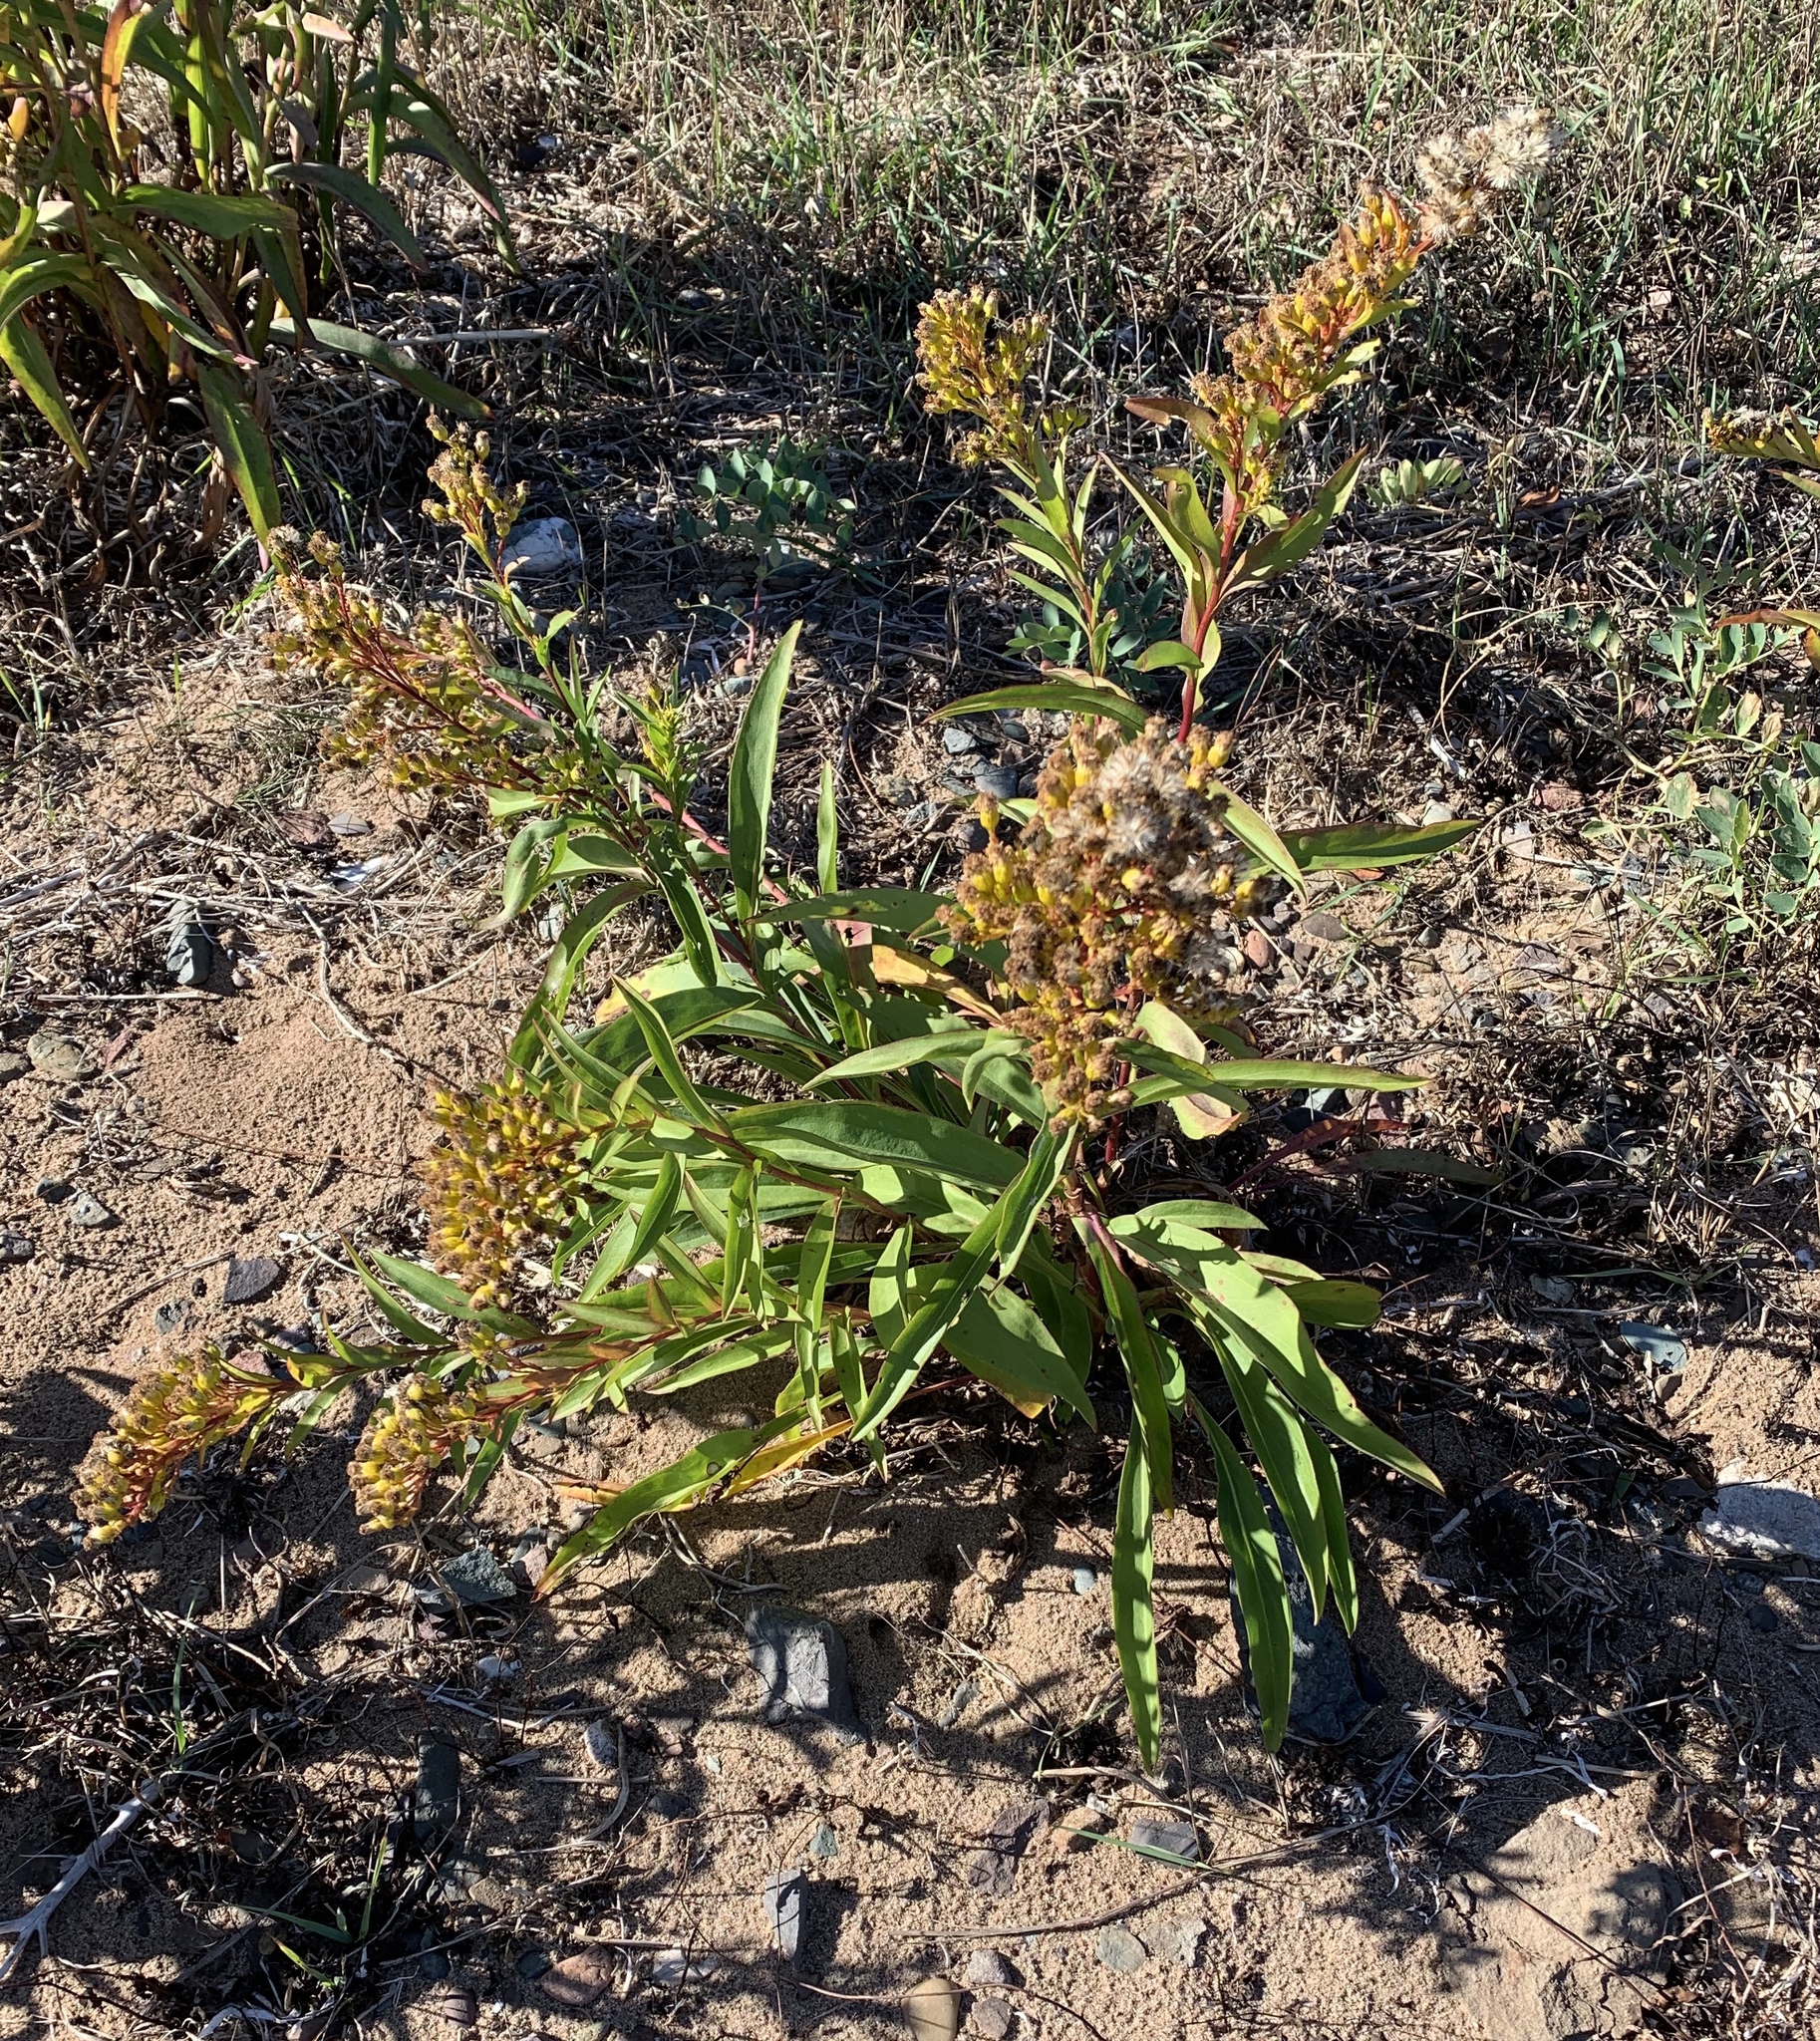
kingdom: Plantae
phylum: Tracheophyta
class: Magnoliopsida
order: Asterales
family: Asteraceae
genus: Solidago
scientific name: Solidago sempervirens
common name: Salt-marsh goldenrod
